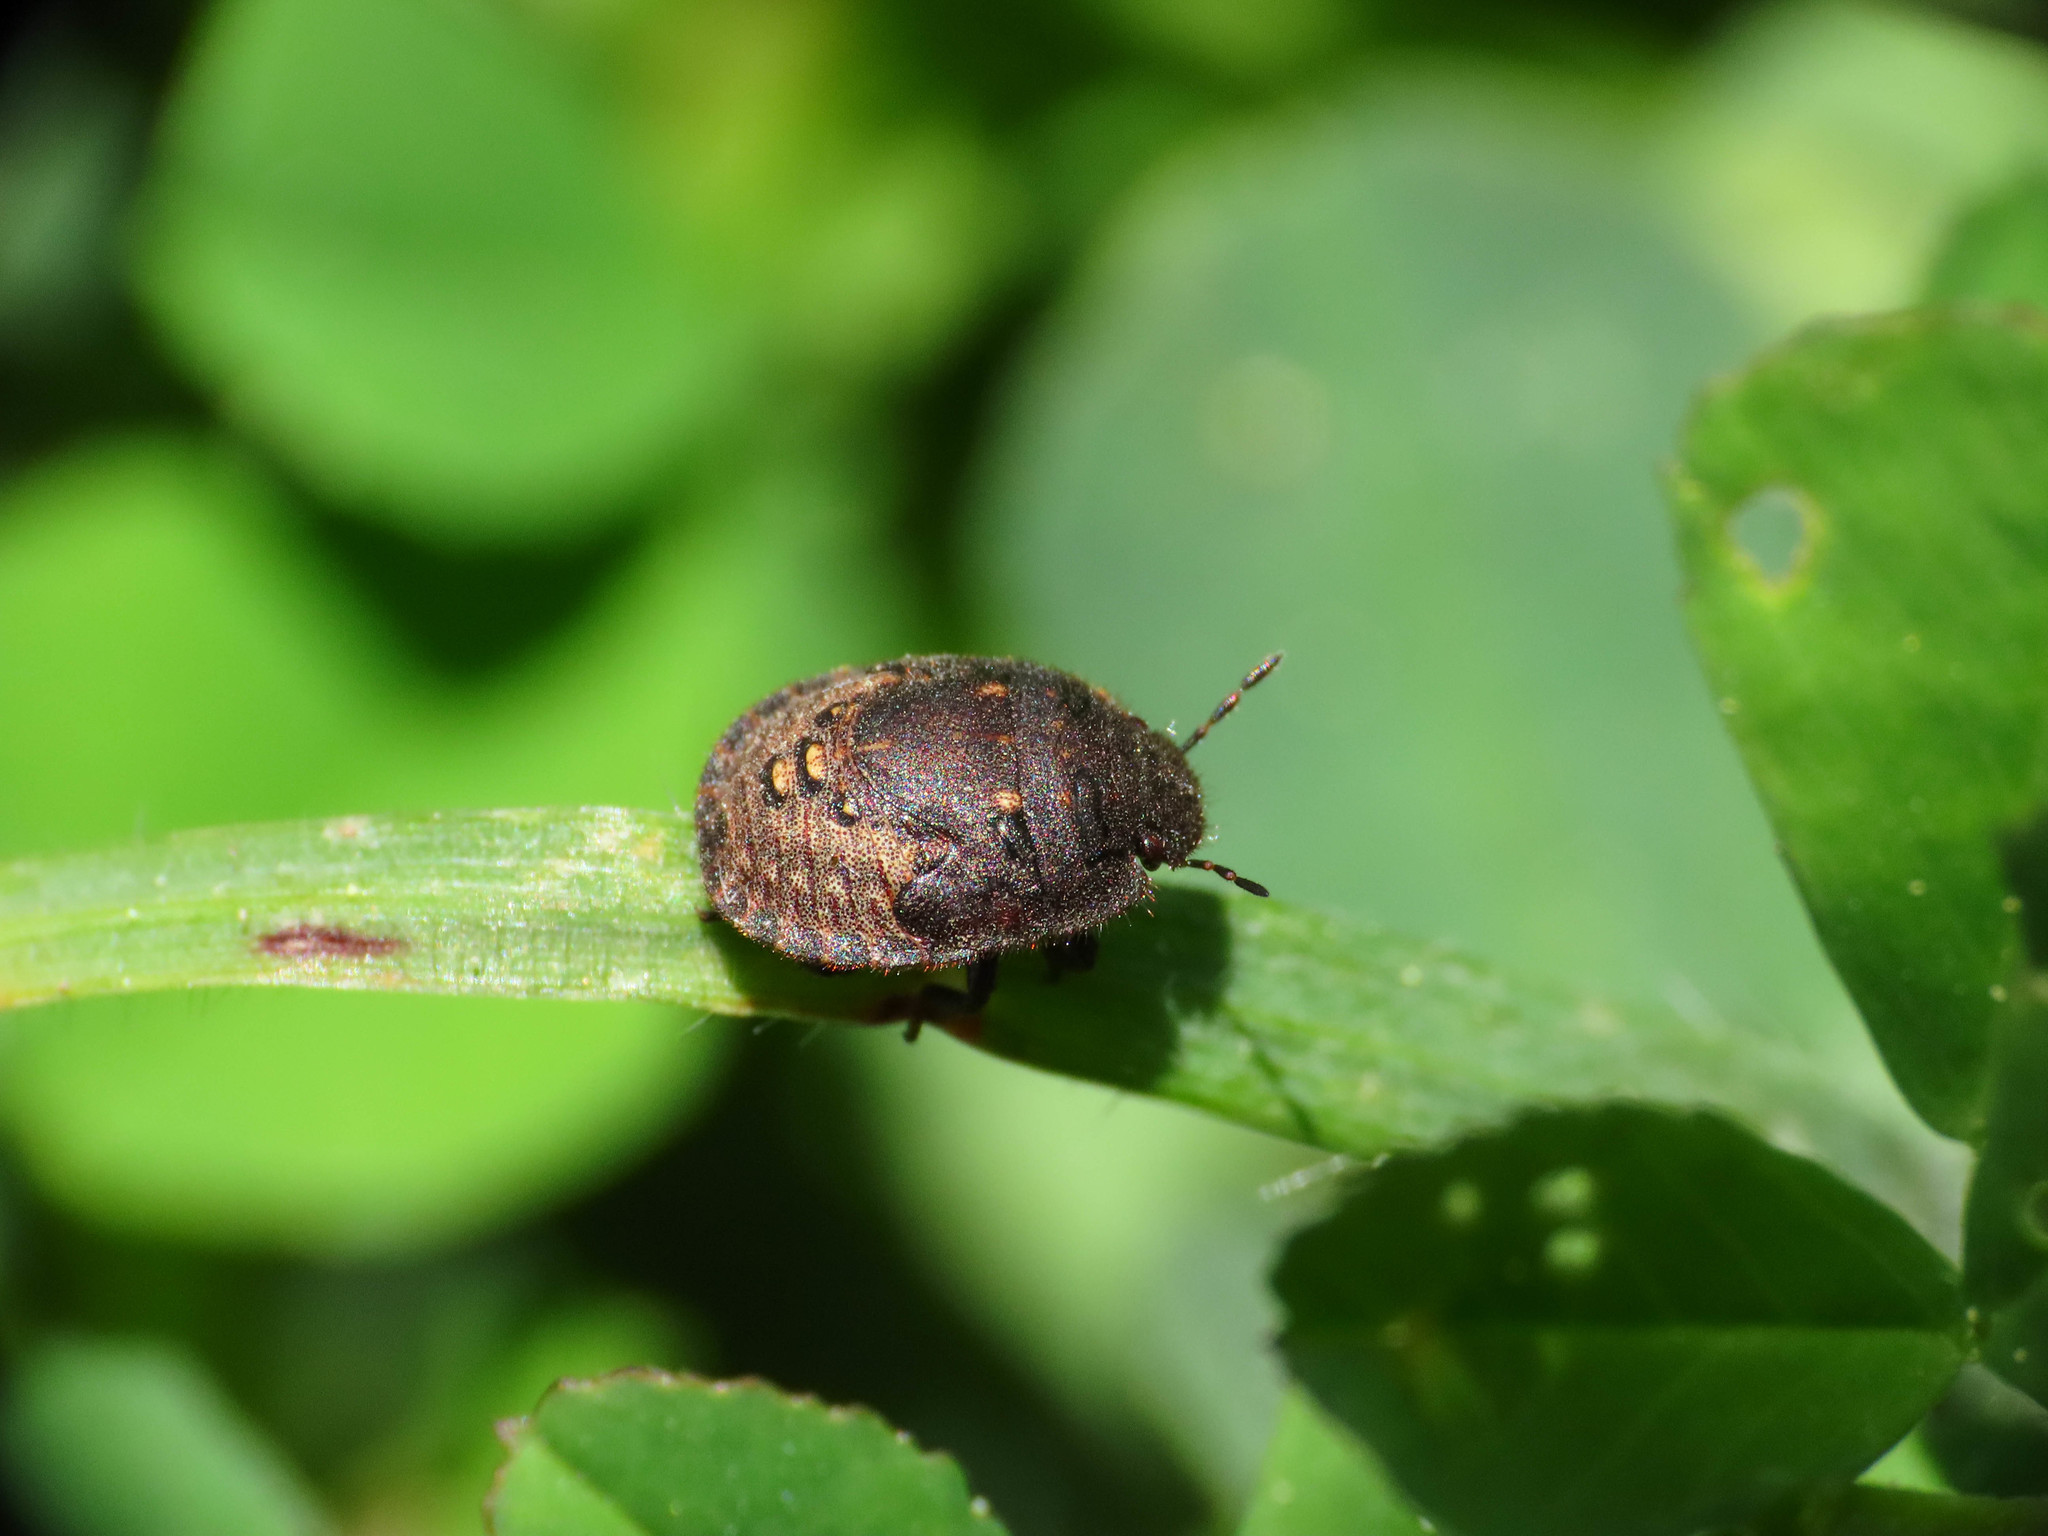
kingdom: Animalia
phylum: Arthropoda
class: Insecta
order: Hemiptera
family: Scutelleridae
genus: Odontoscelis
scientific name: Odontoscelis fuliginosa
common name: Greater streaked shieldbug
